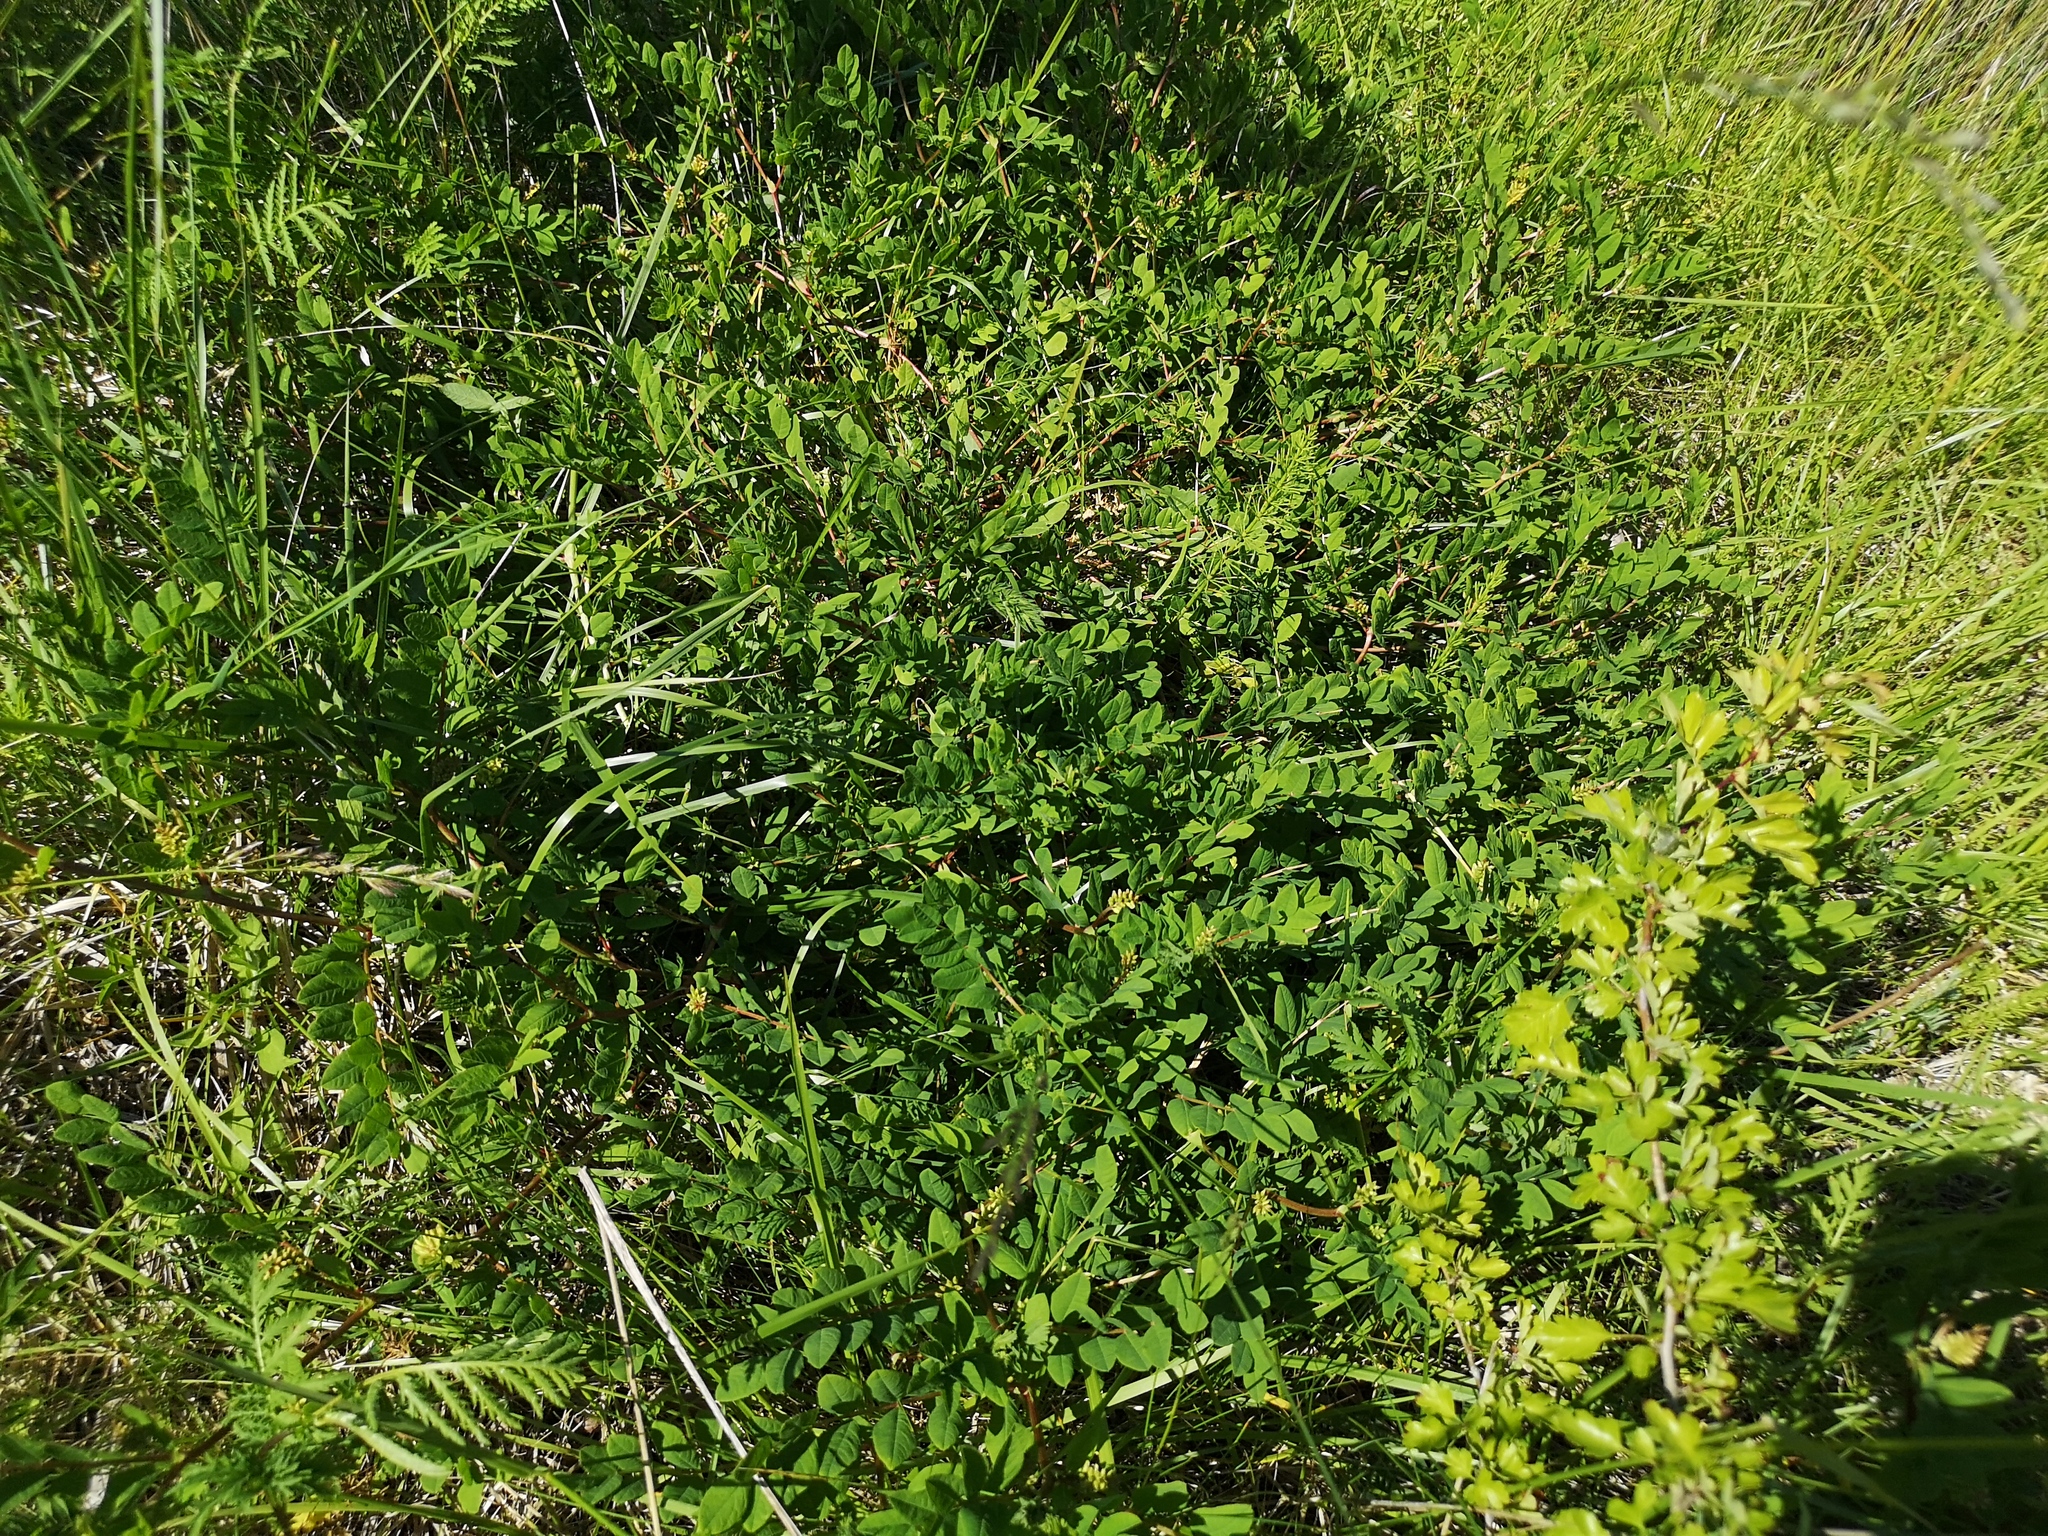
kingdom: Plantae
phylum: Tracheophyta
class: Magnoliopsida
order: Fabales
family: Fabaceae
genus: Astragalus
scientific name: Astragalus glycyphyllos
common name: Wild liquorice
